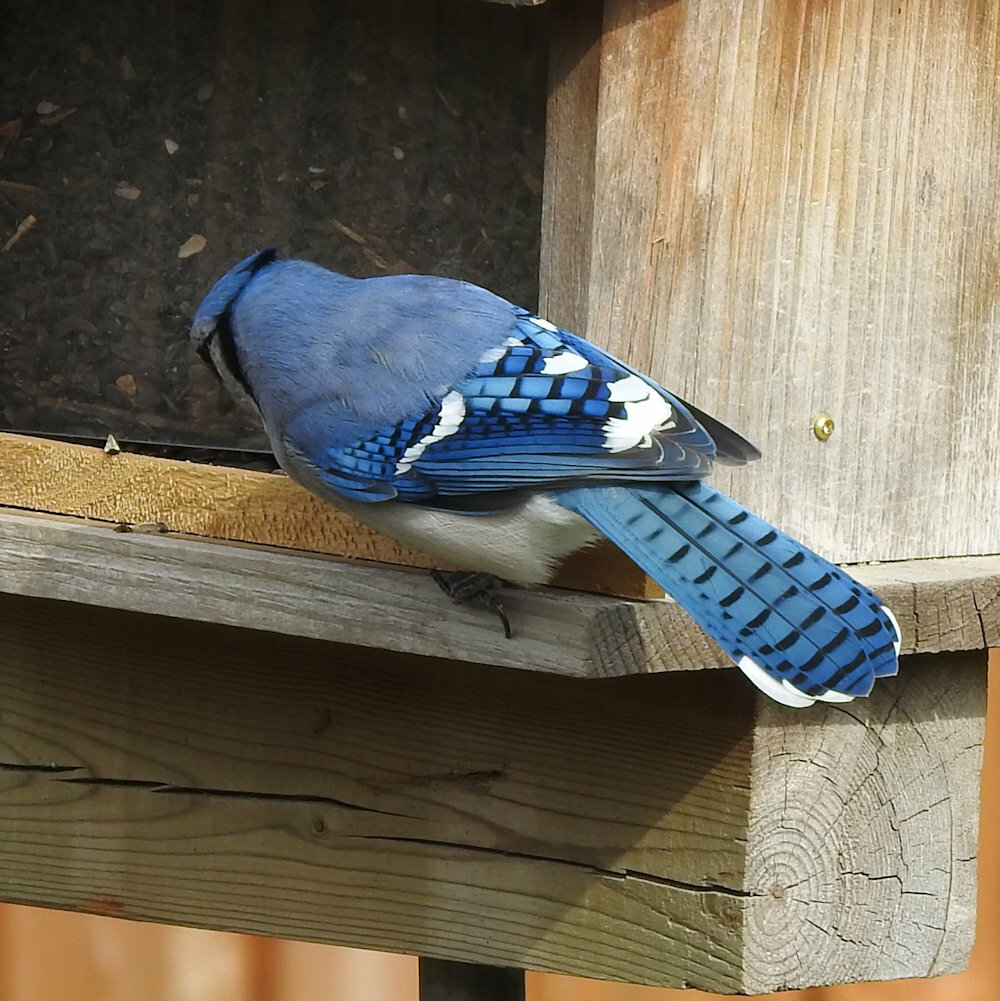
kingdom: Animalia
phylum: Chordata
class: Aves
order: Passeriformes
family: Corvidae
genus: Cyanocitta
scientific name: Cyanocitta cristata
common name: Blue jay
